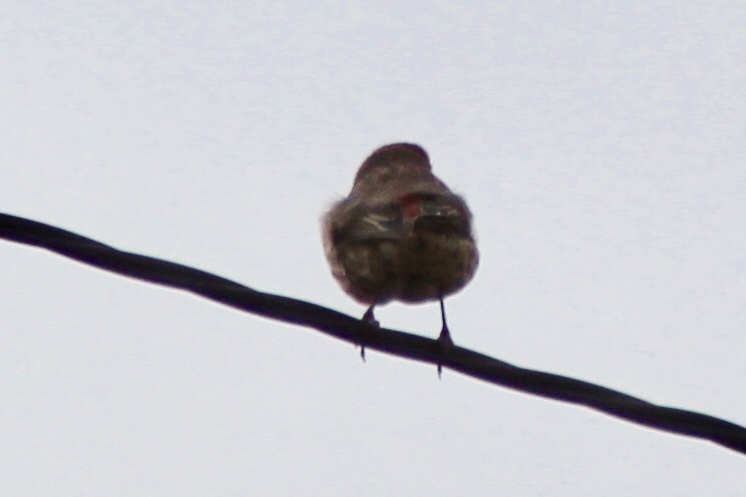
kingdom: Animalia
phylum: Chordata
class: Aves
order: Passeriformes
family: Fringillidae
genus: Haemorhous
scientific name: Haemorhous mexicanus
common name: House finch
